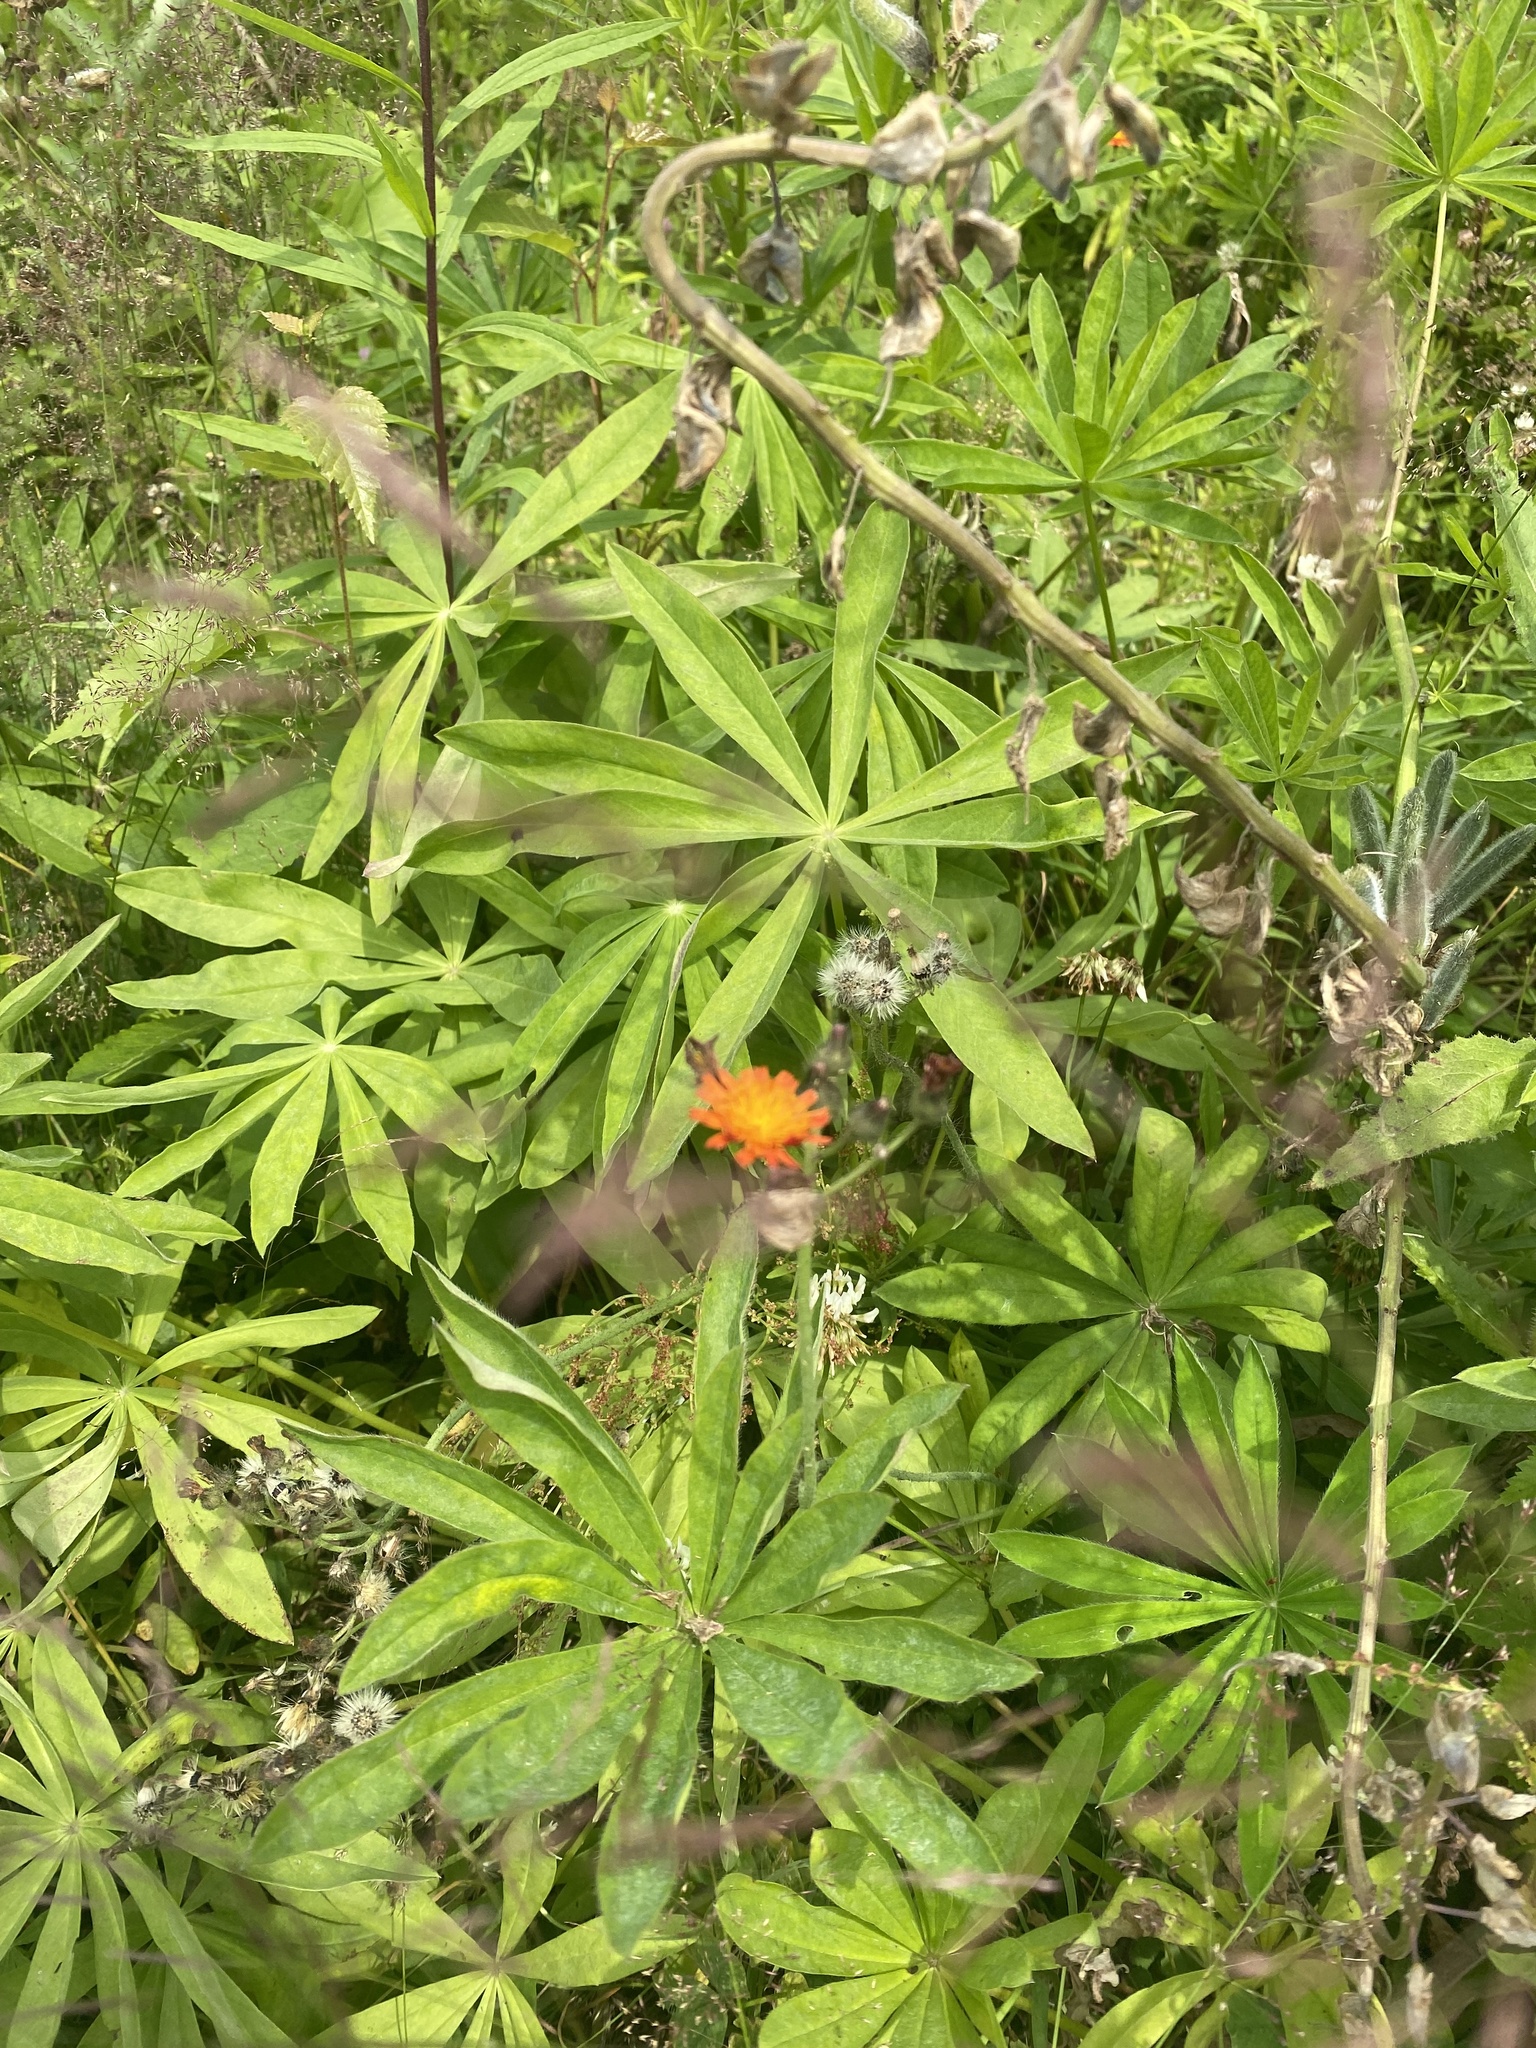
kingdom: Plantae
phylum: Tracheophyta
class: Magnoliopsida
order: Asterales
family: Asteraceae
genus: Pilosella
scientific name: Pilosella aurantiaca
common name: Fox-and-cubs
